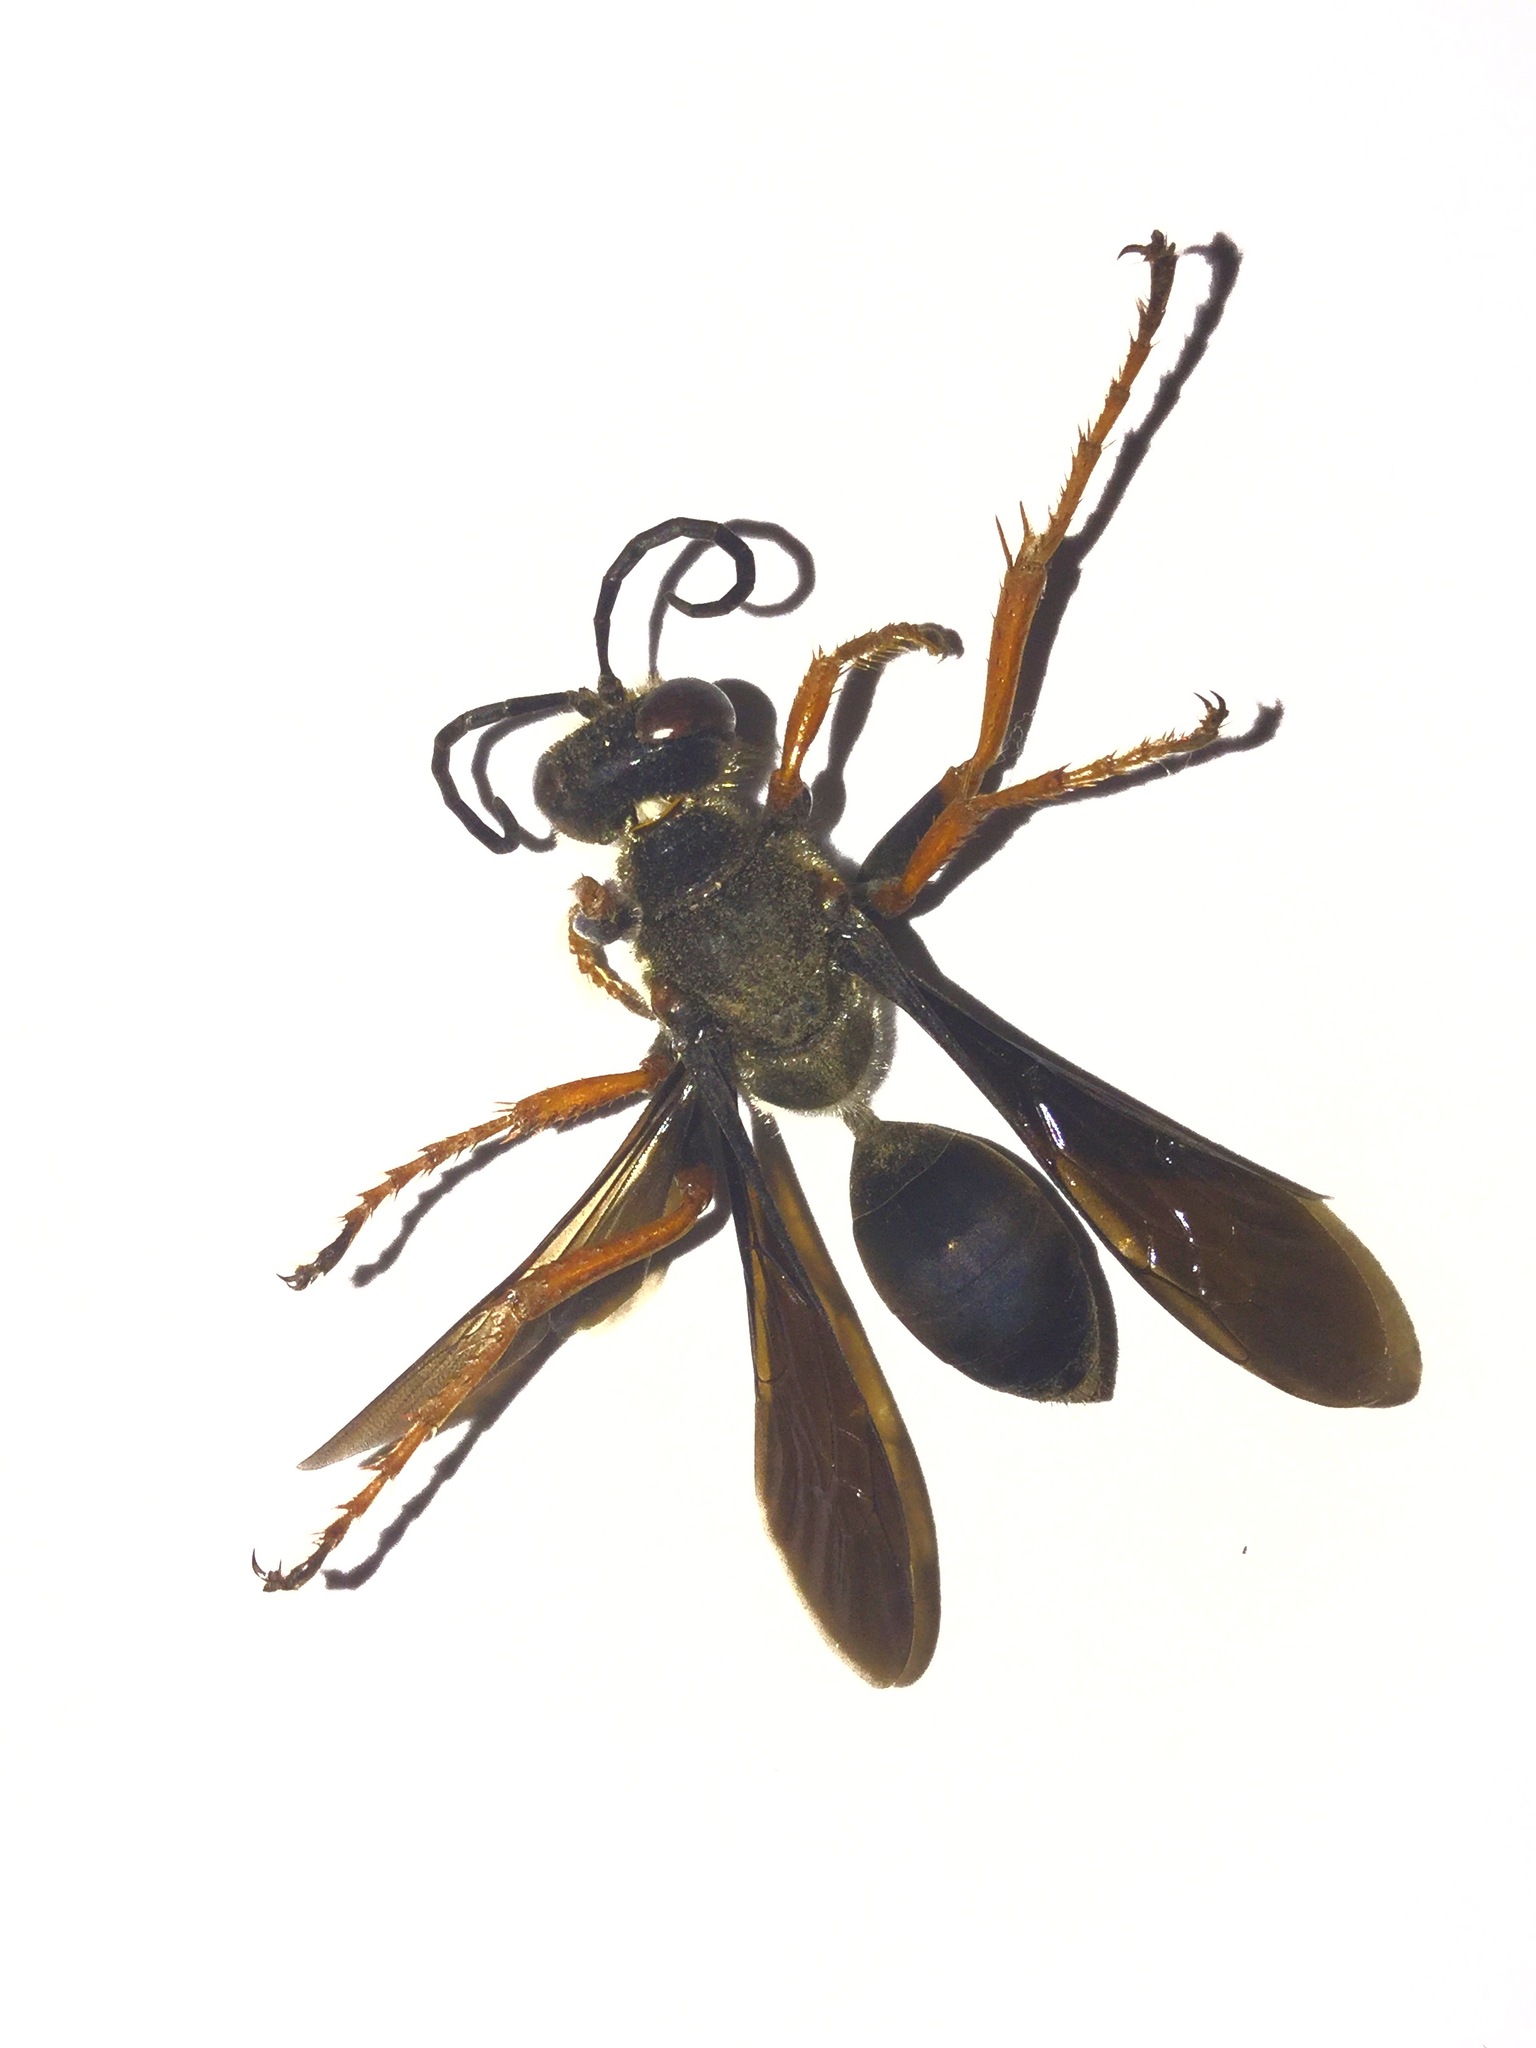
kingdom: Animalia
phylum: Arthropoda
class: Insecta
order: Hymenoptera
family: Sphecidae
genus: Sphex
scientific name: Sphex nudus
